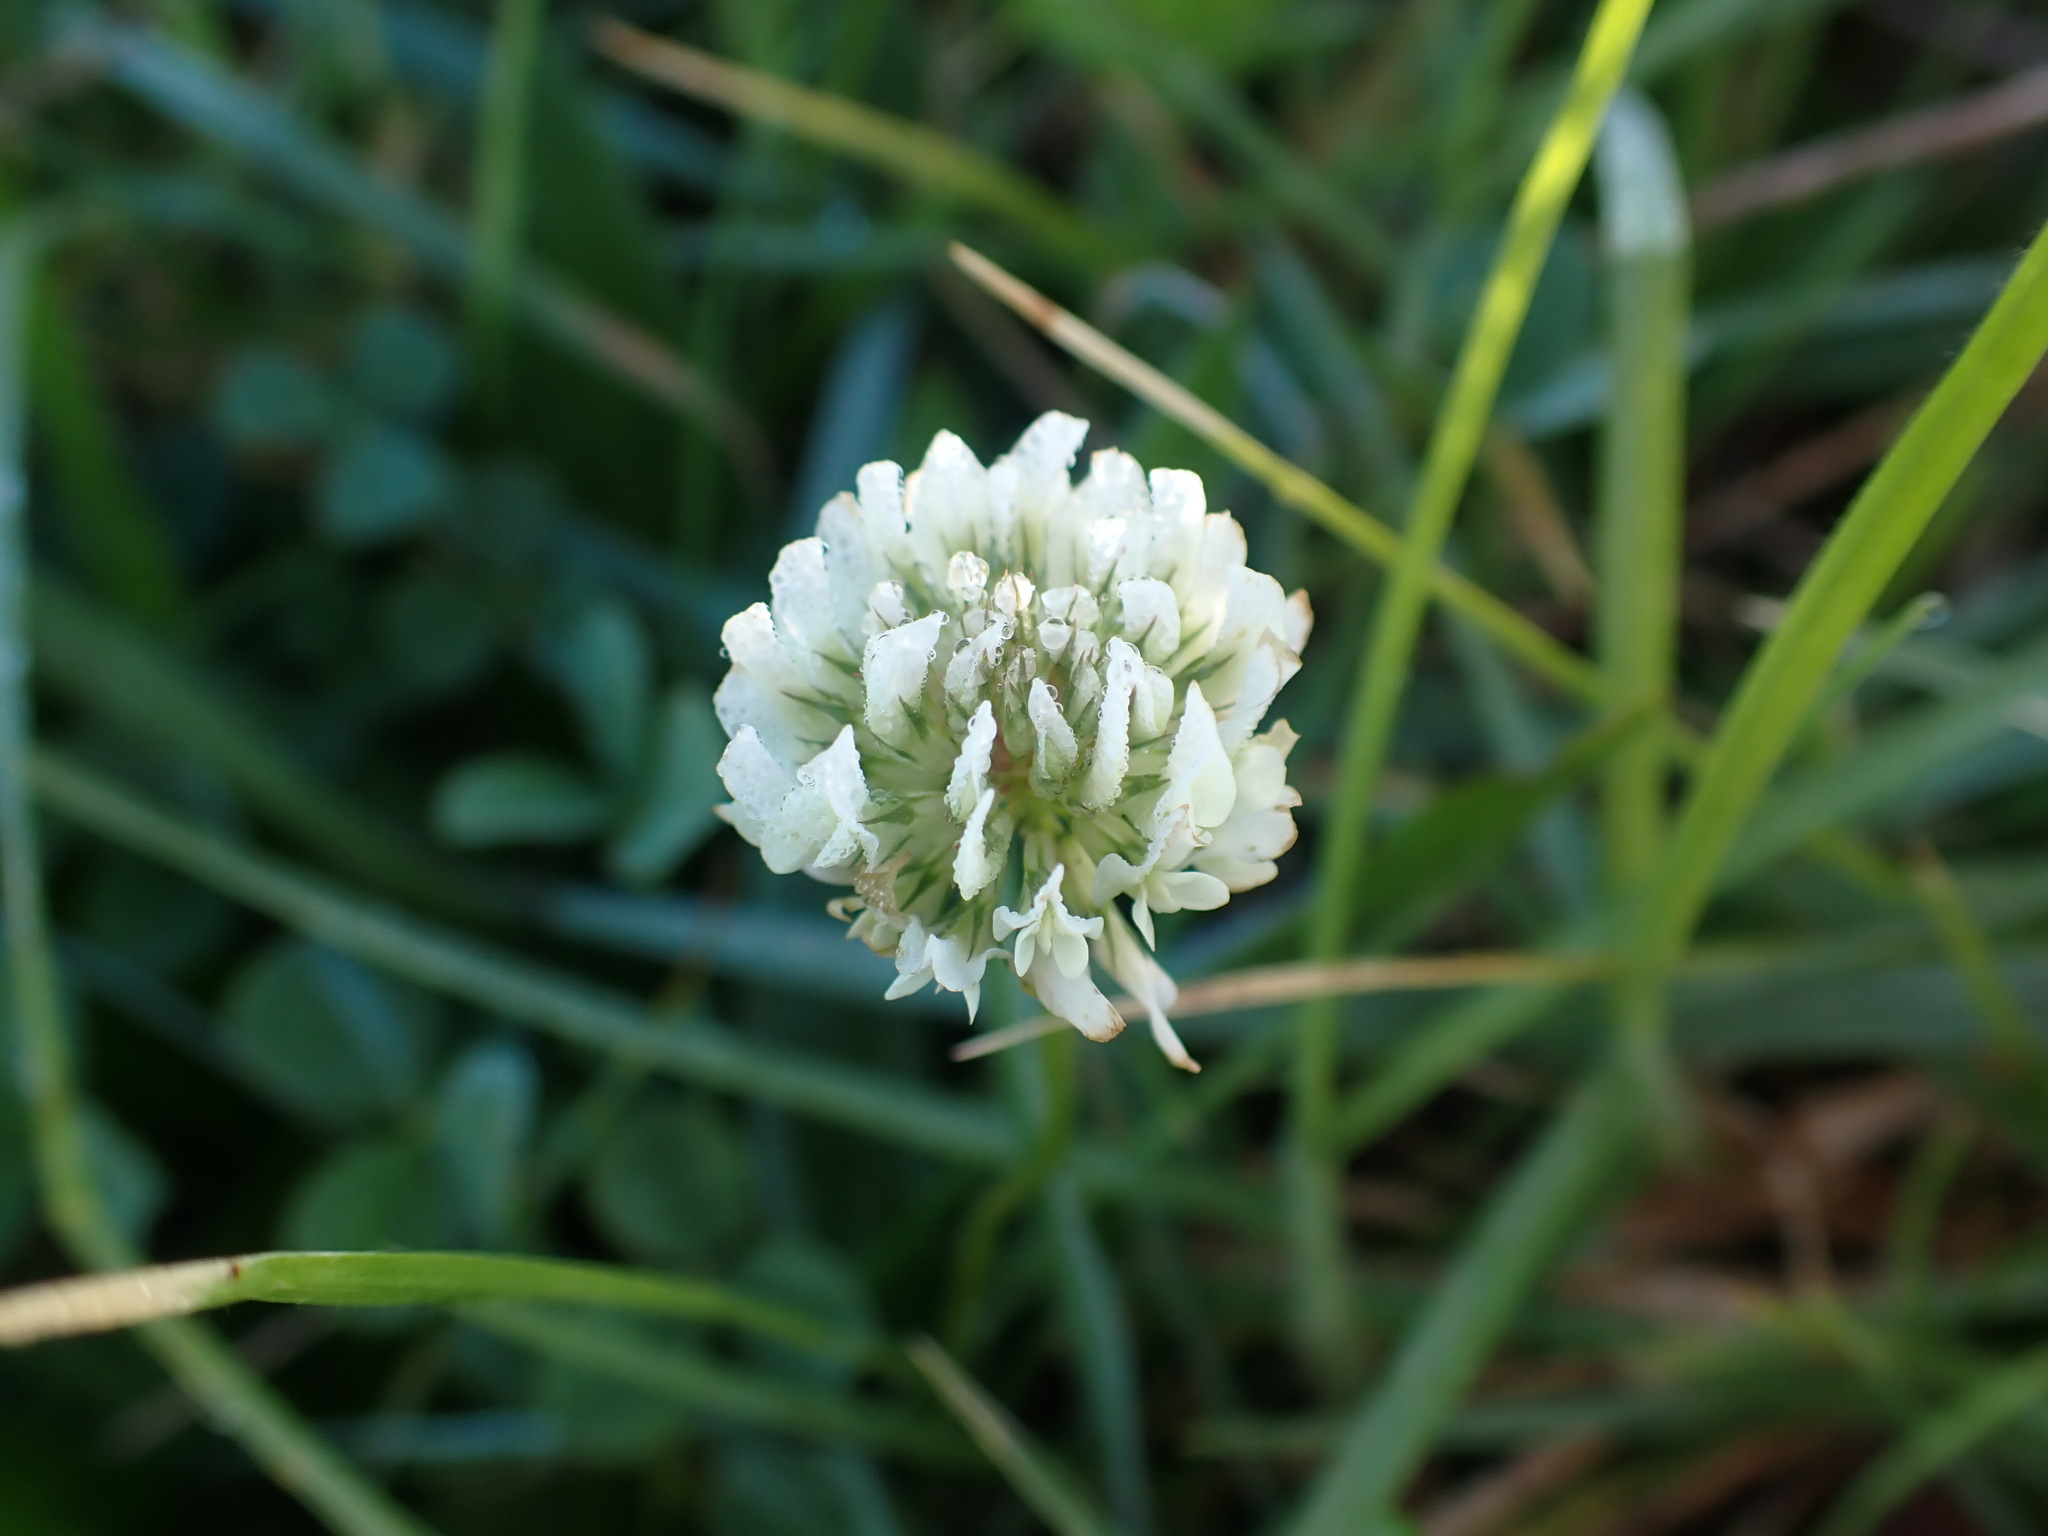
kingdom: Plantae
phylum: Tracheophyta
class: Magnoliopsida
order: Fabales
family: Fabaceae
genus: Trifolium
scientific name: Trifolium repens
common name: White clover
